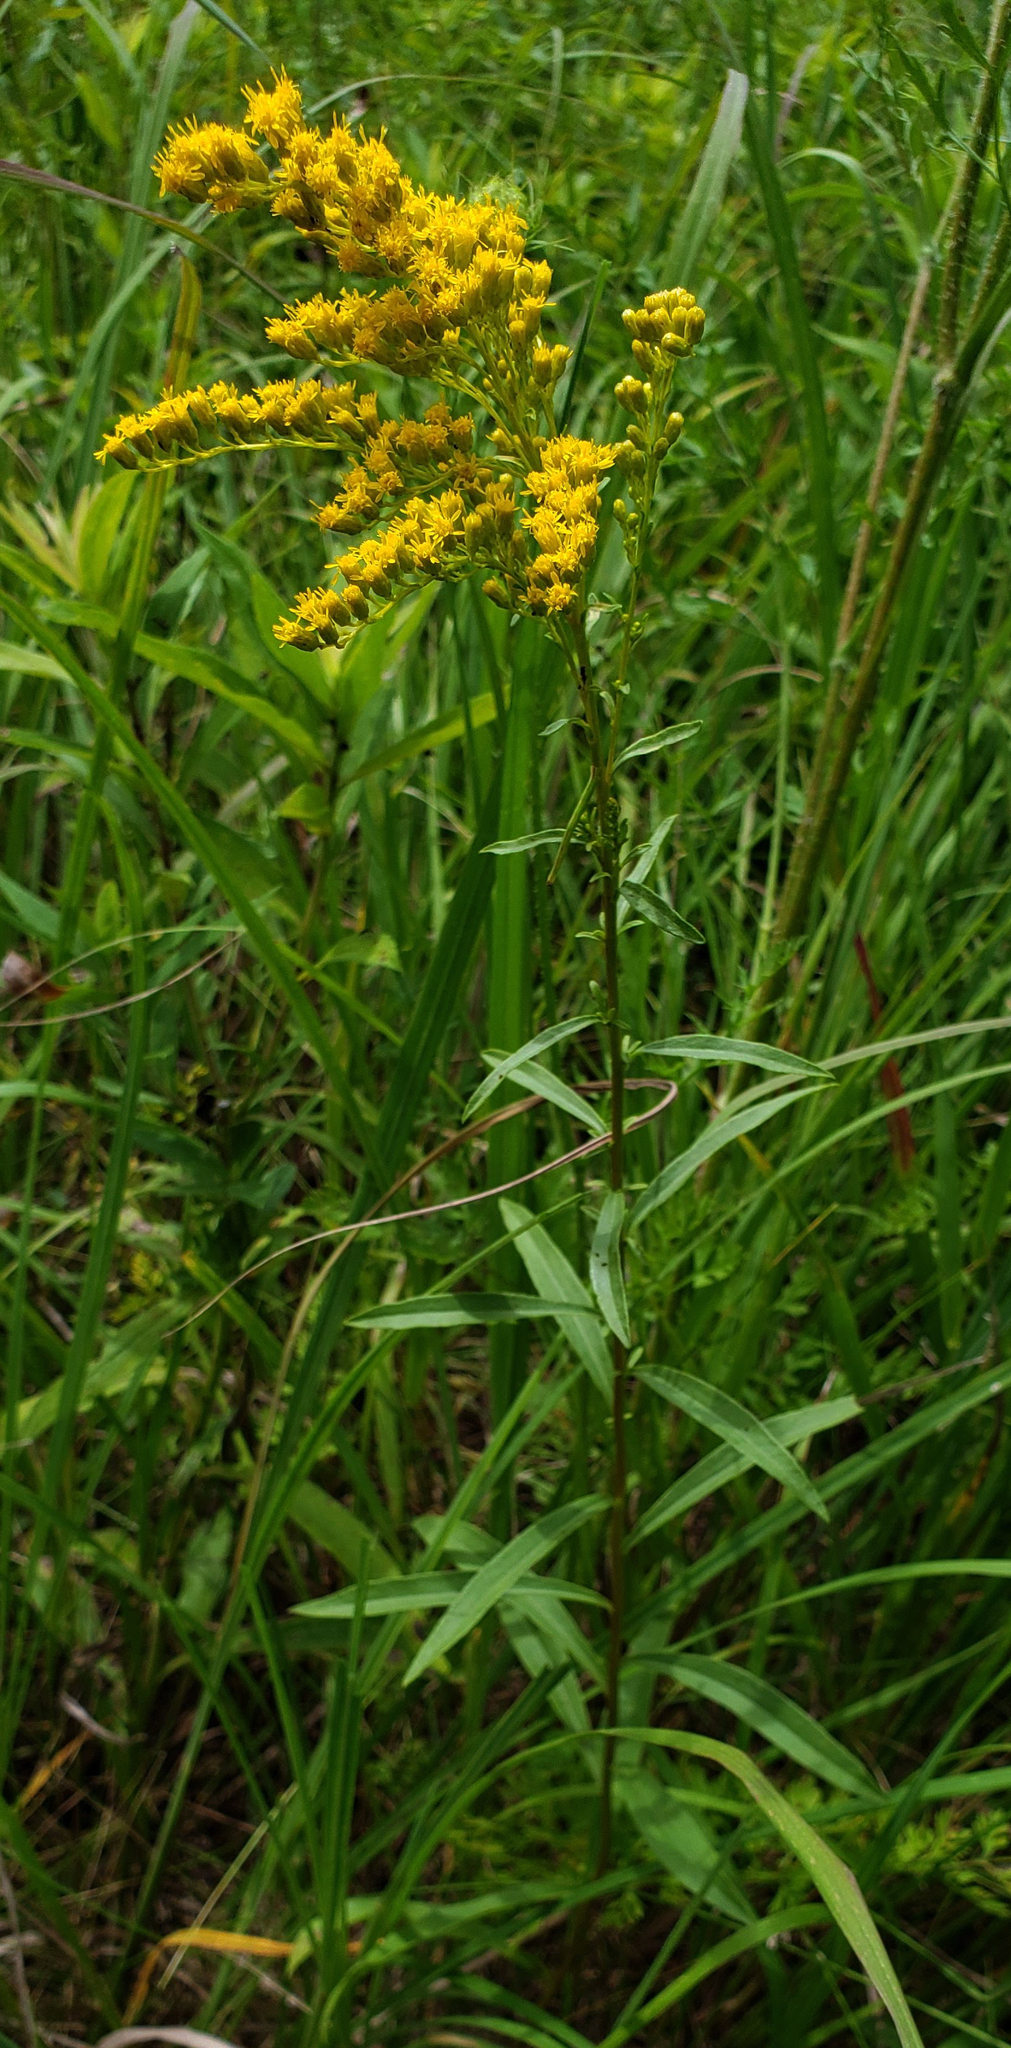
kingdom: Plantae
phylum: Tracheophyta
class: Magnoliopsida
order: Asterales
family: Asteraceae
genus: Solidago
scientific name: Solidago juncea
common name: Early goldenrod
